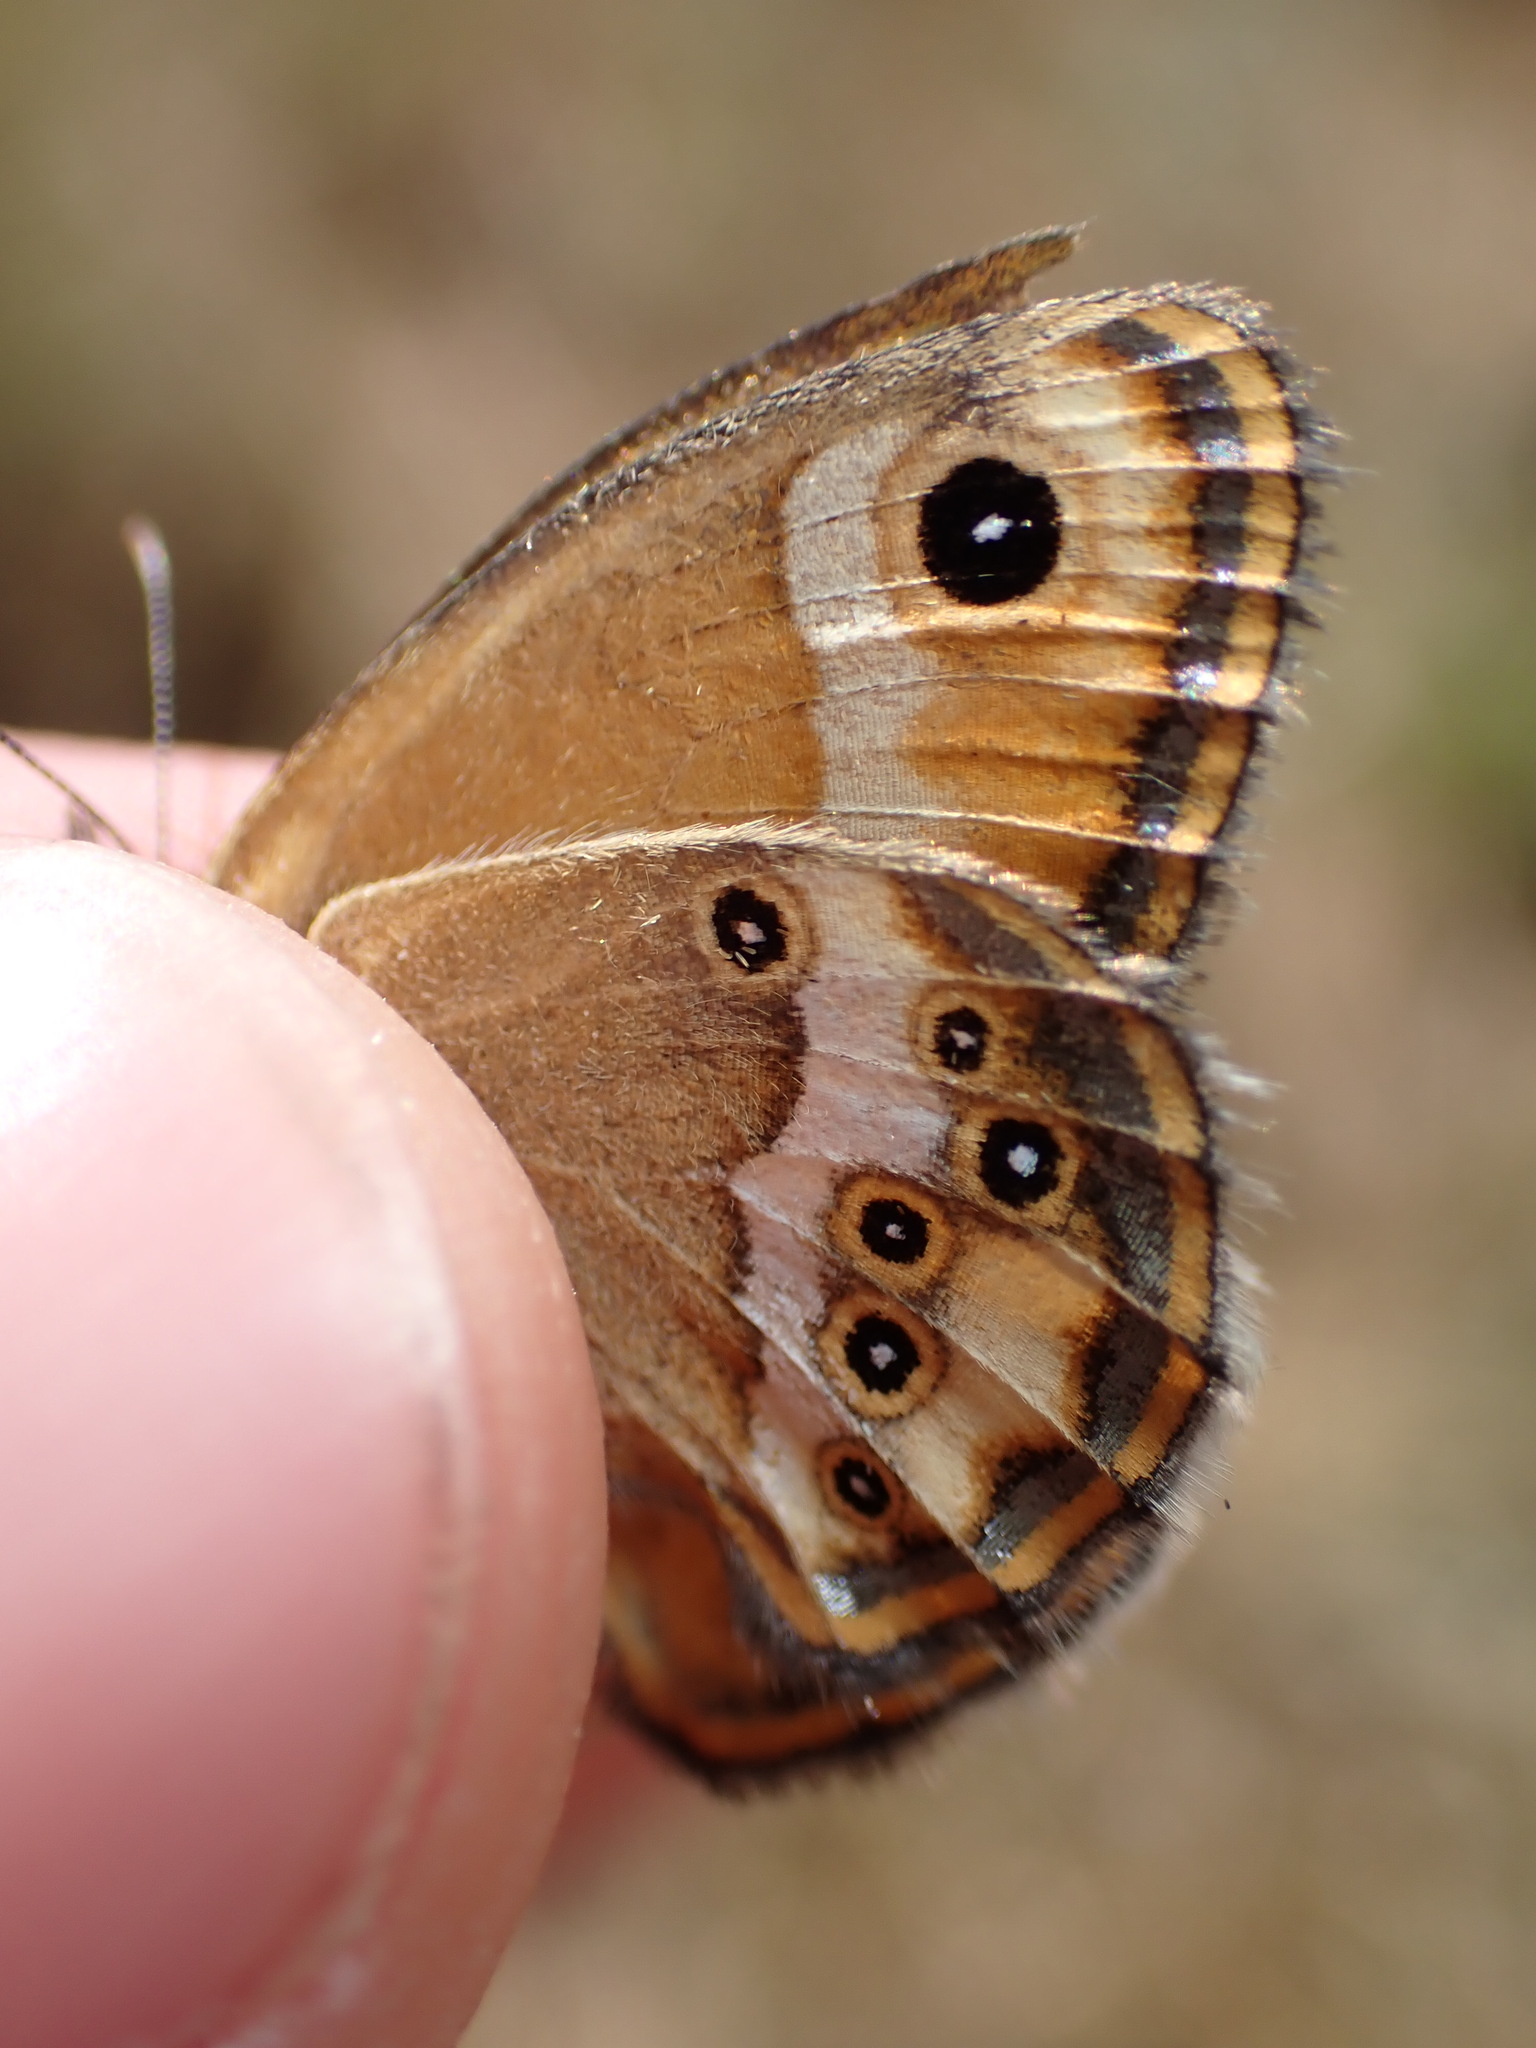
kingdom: Animalia
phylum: Arthropoda
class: Insecta
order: Lepidoptera
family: Nymphalidae
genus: Coenonympha
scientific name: Coenonympha dorus
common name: Dusky heath
